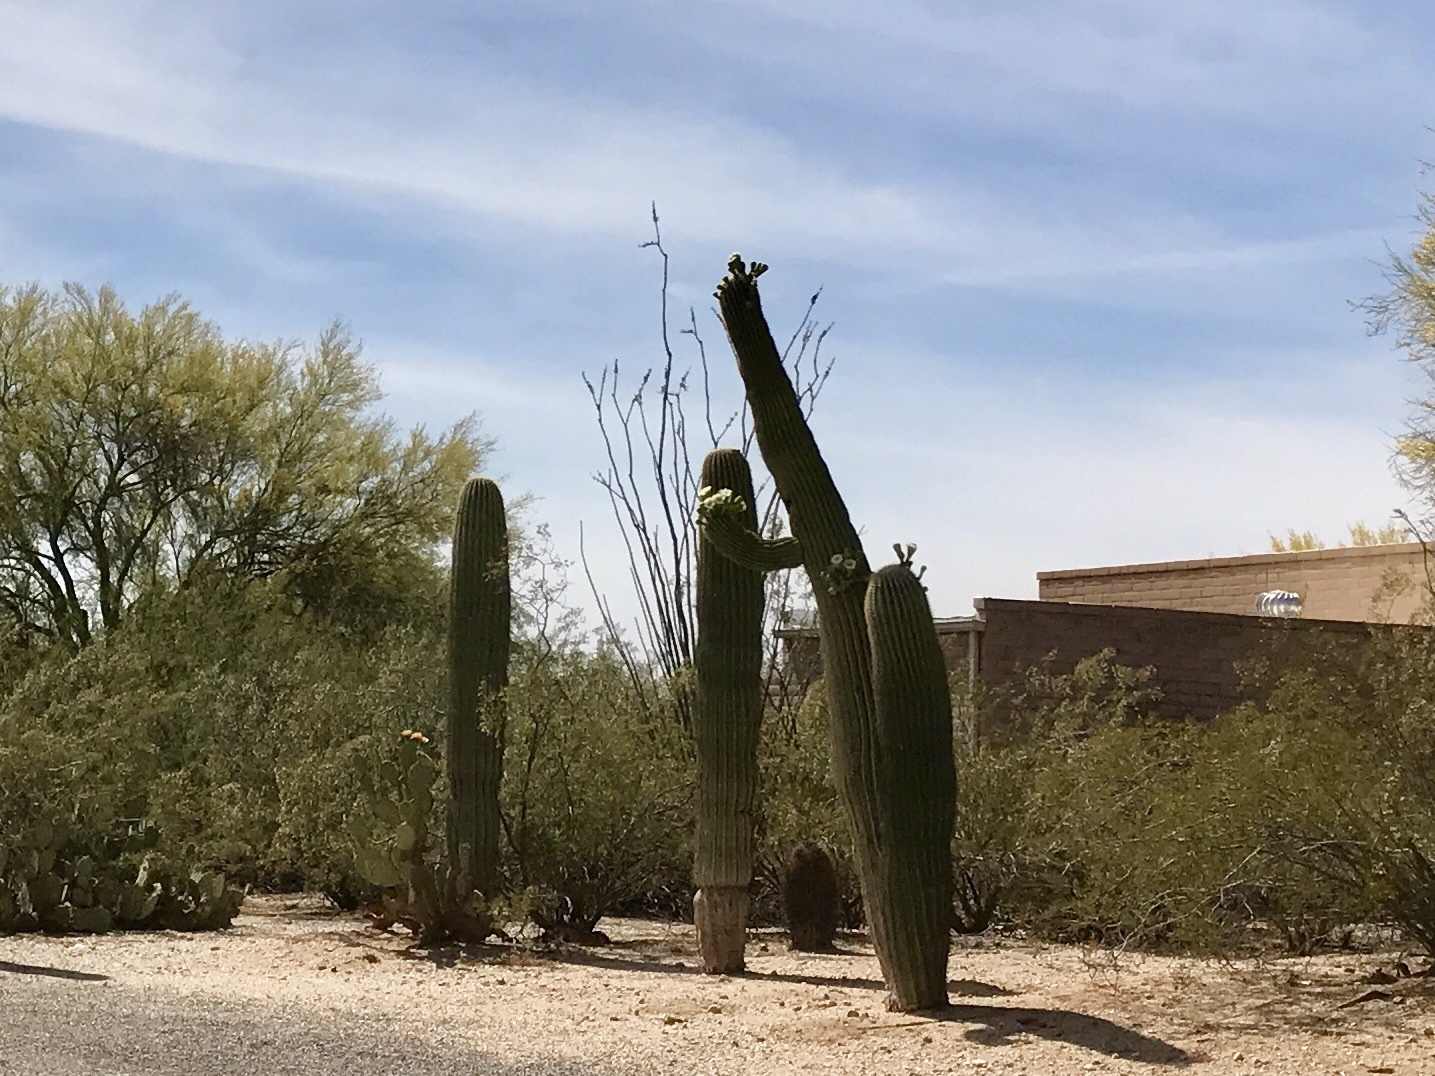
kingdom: Plantae
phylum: Tracheophyta
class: Magnoliopsida
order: Caryophyllales
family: Cactaceae
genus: Carnegiea
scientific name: Carnegiea gigantea
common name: Saguaro
